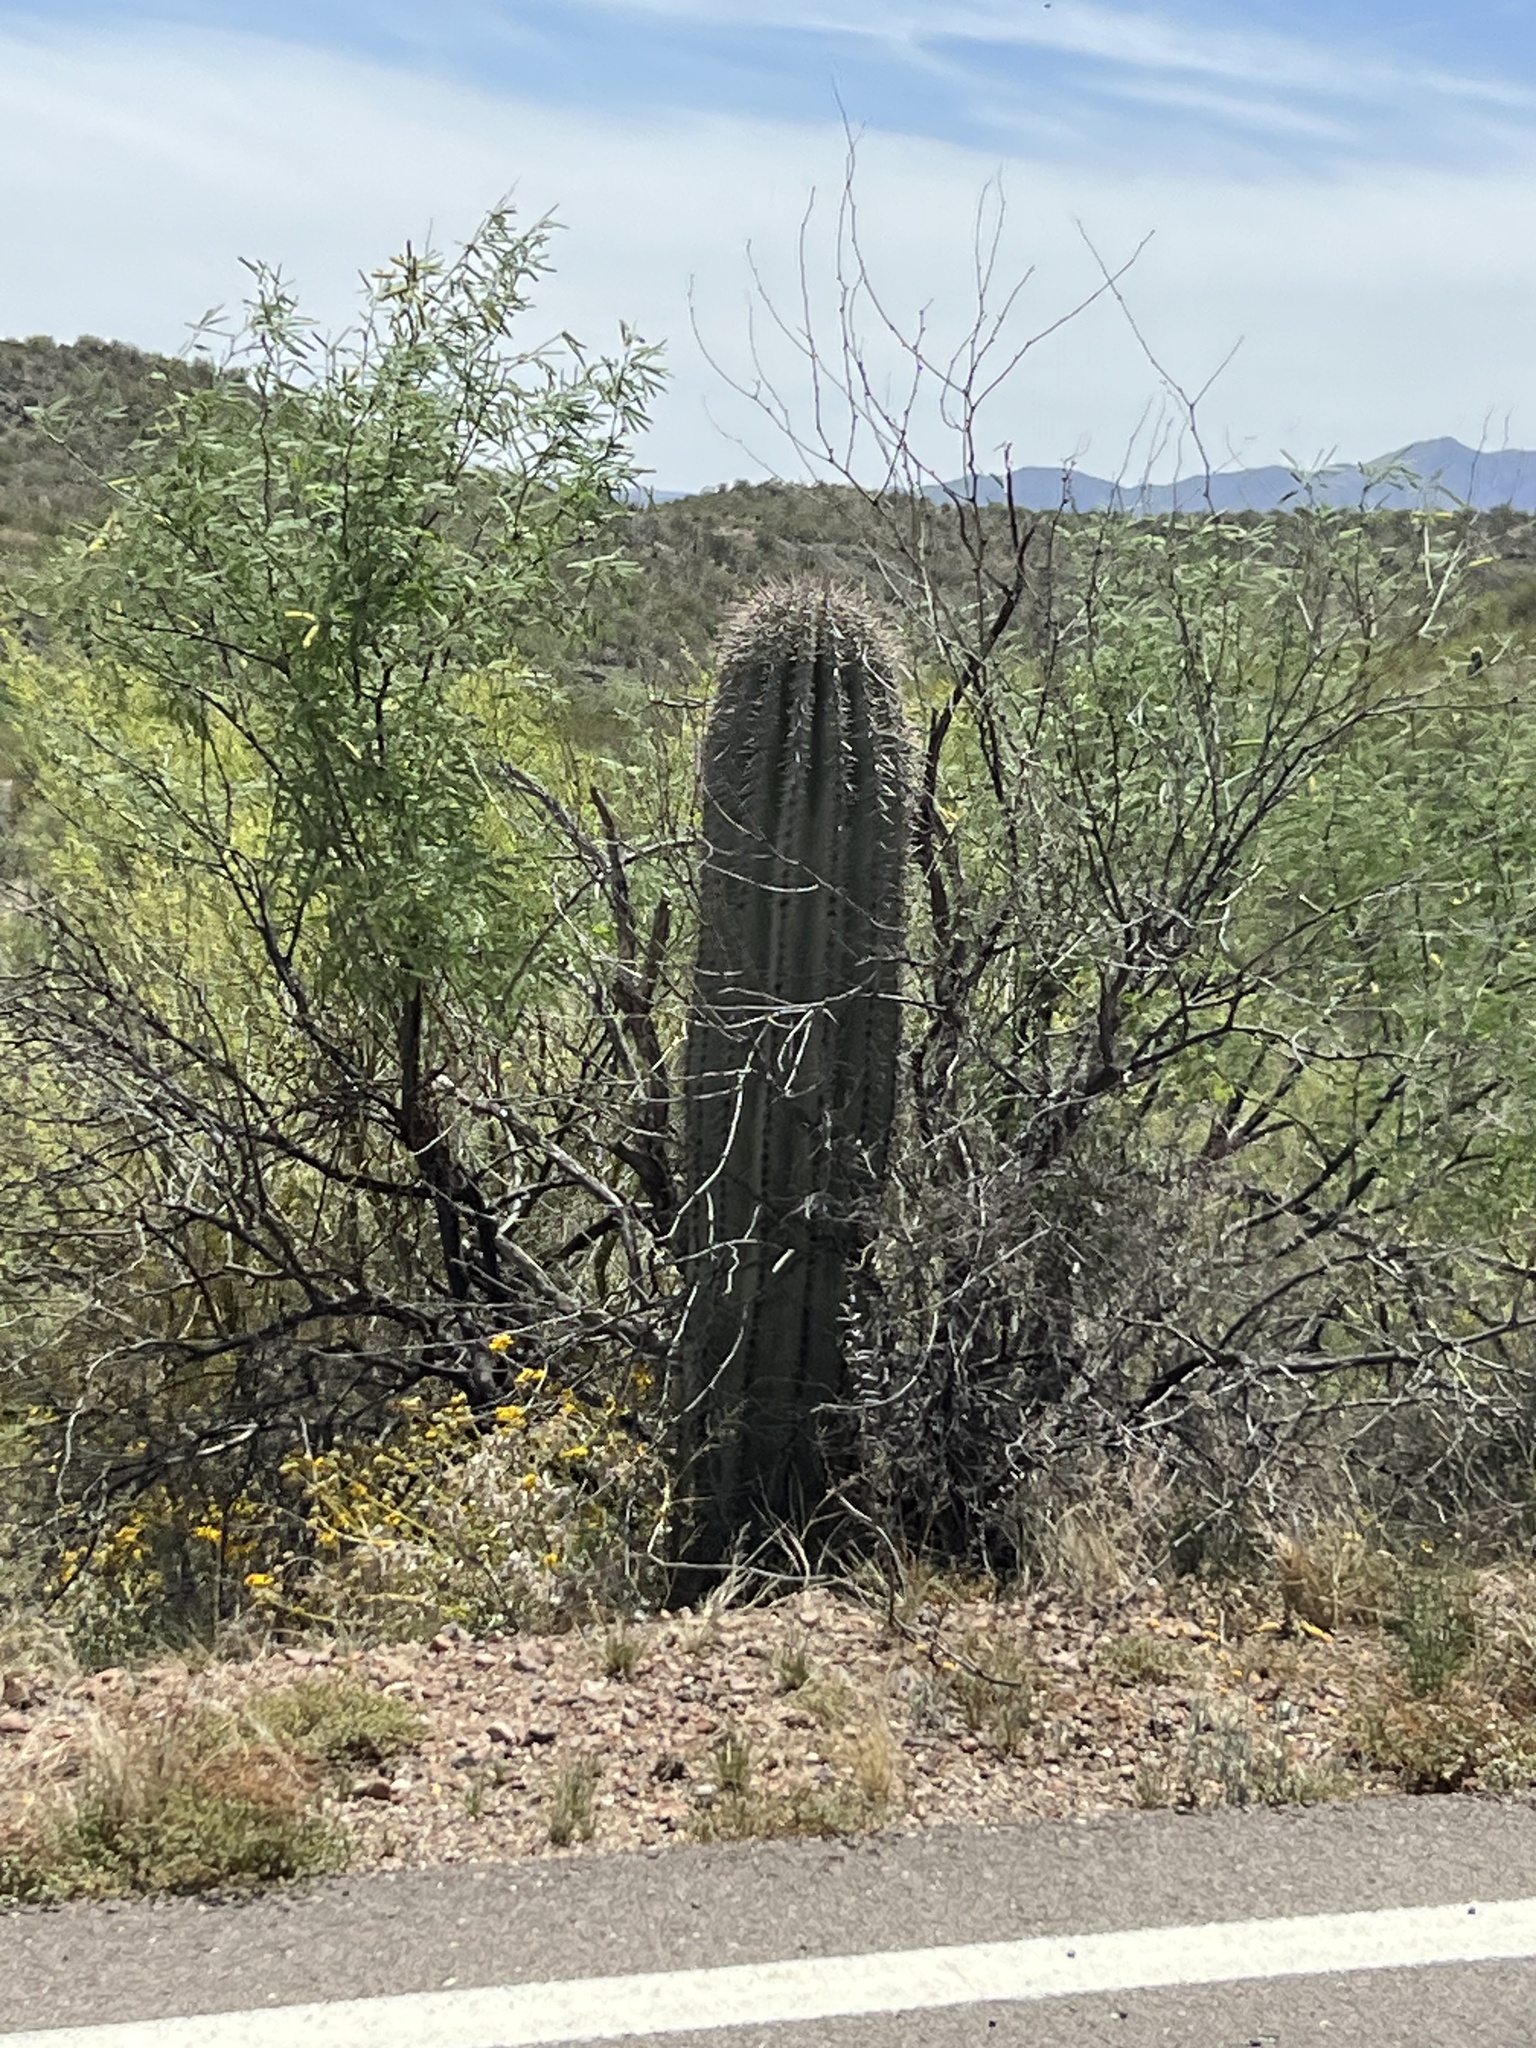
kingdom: Plantae
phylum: Tracheophyta
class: Magnoliopsida
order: Caryophyllales
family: Cactaceae
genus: Carnegiea
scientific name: Carnegiea gigantea
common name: Saguaro
